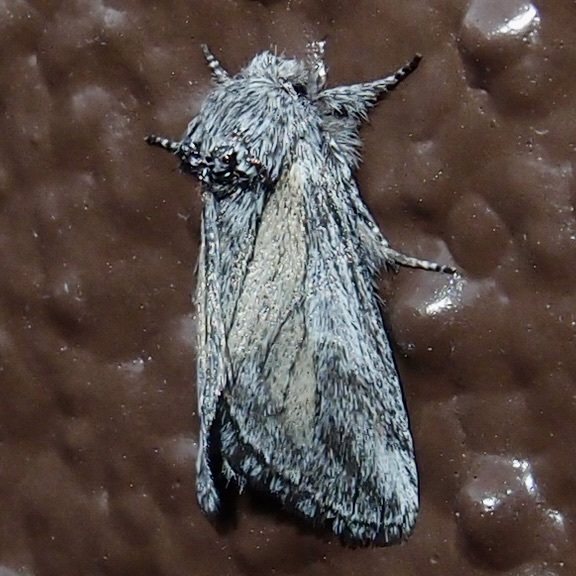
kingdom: Animalia
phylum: Arthropoda
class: Insecta
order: Lepidoptera
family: Notodontidae
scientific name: Notodontidae
